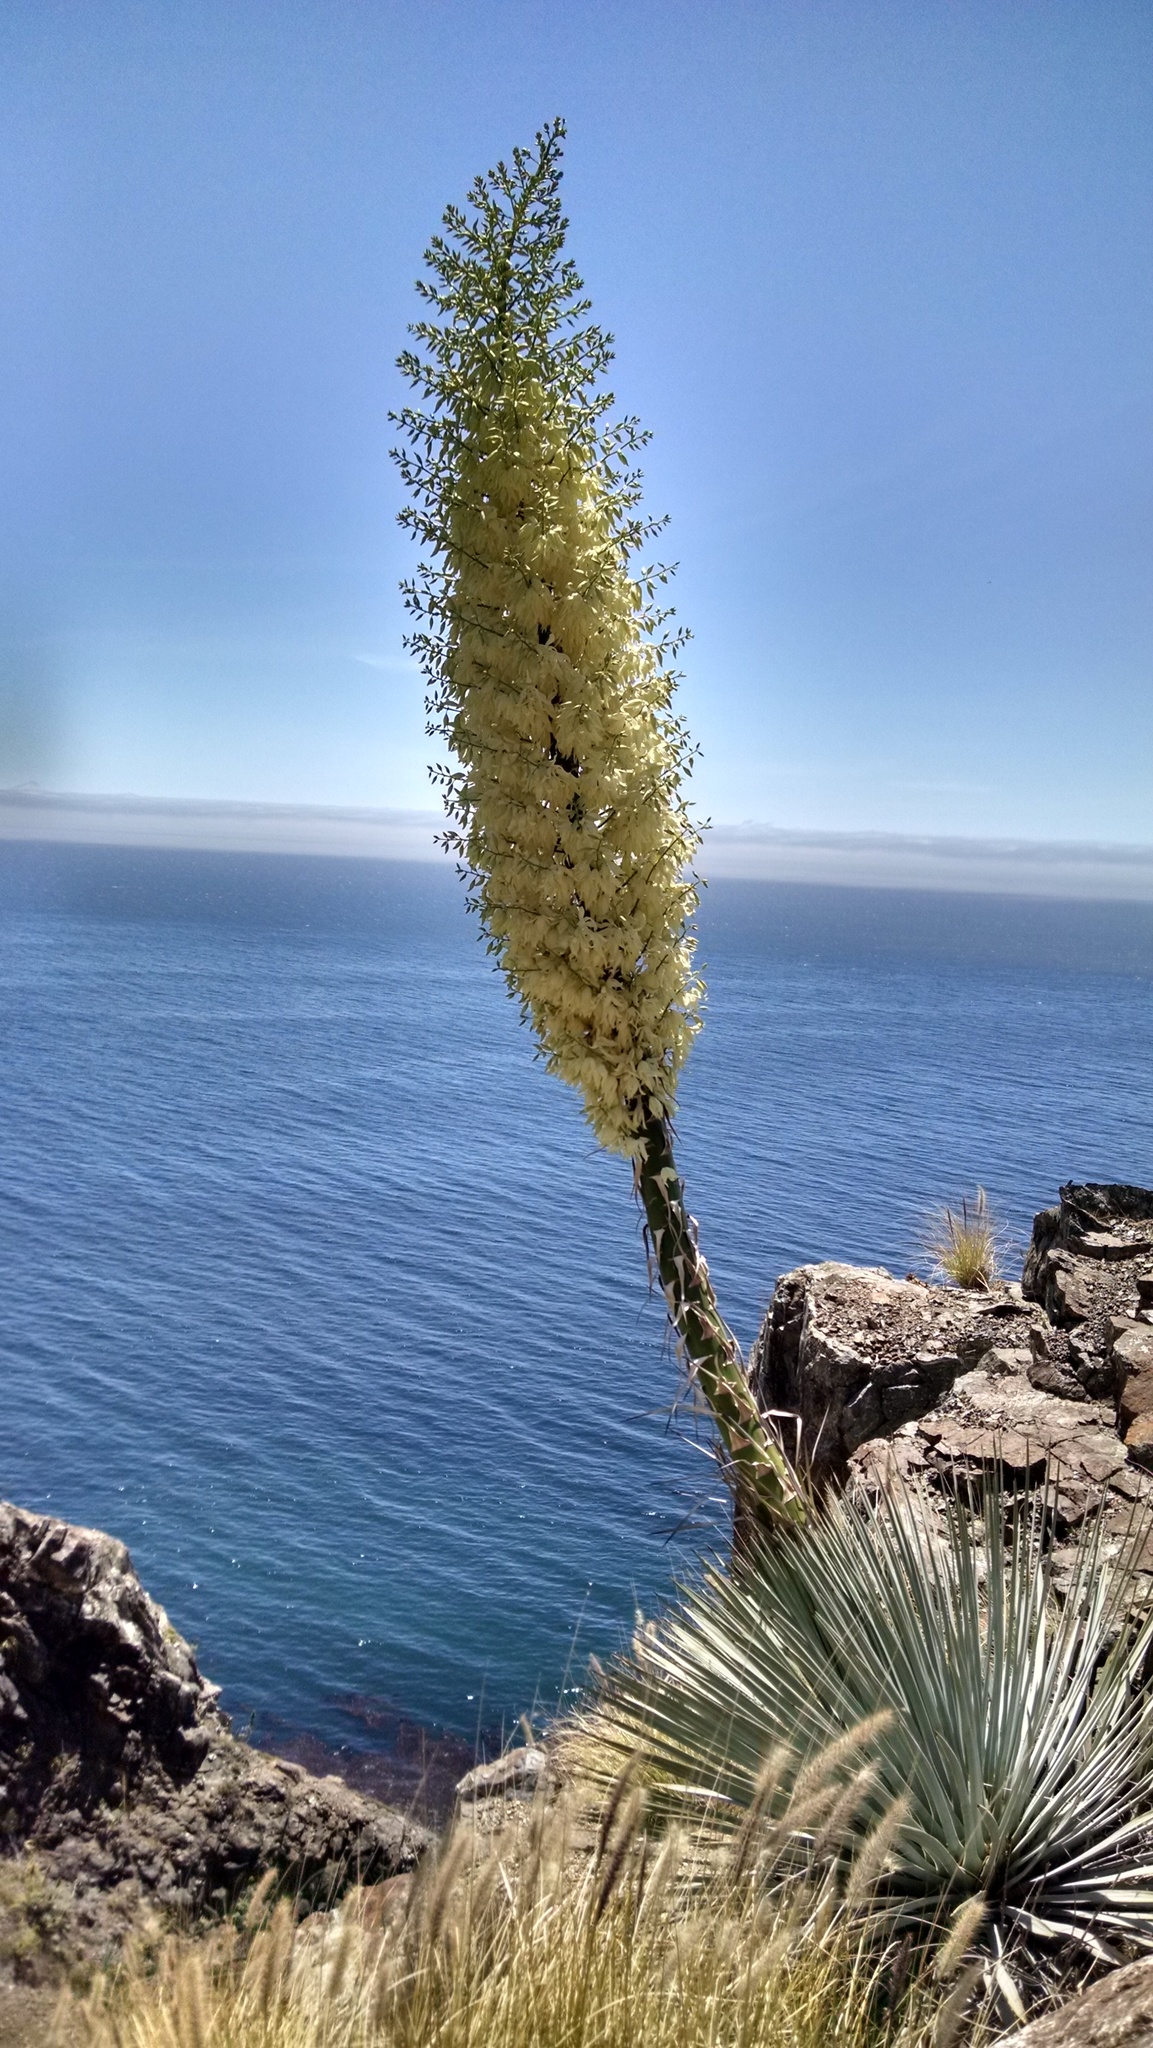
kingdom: Plantae
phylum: Tracheophyta
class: Liliopsida
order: Asparagales
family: Asparagaceae
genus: Hesperoyucca
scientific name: Hesperoyucca whipplei
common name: Our lord's-candle
